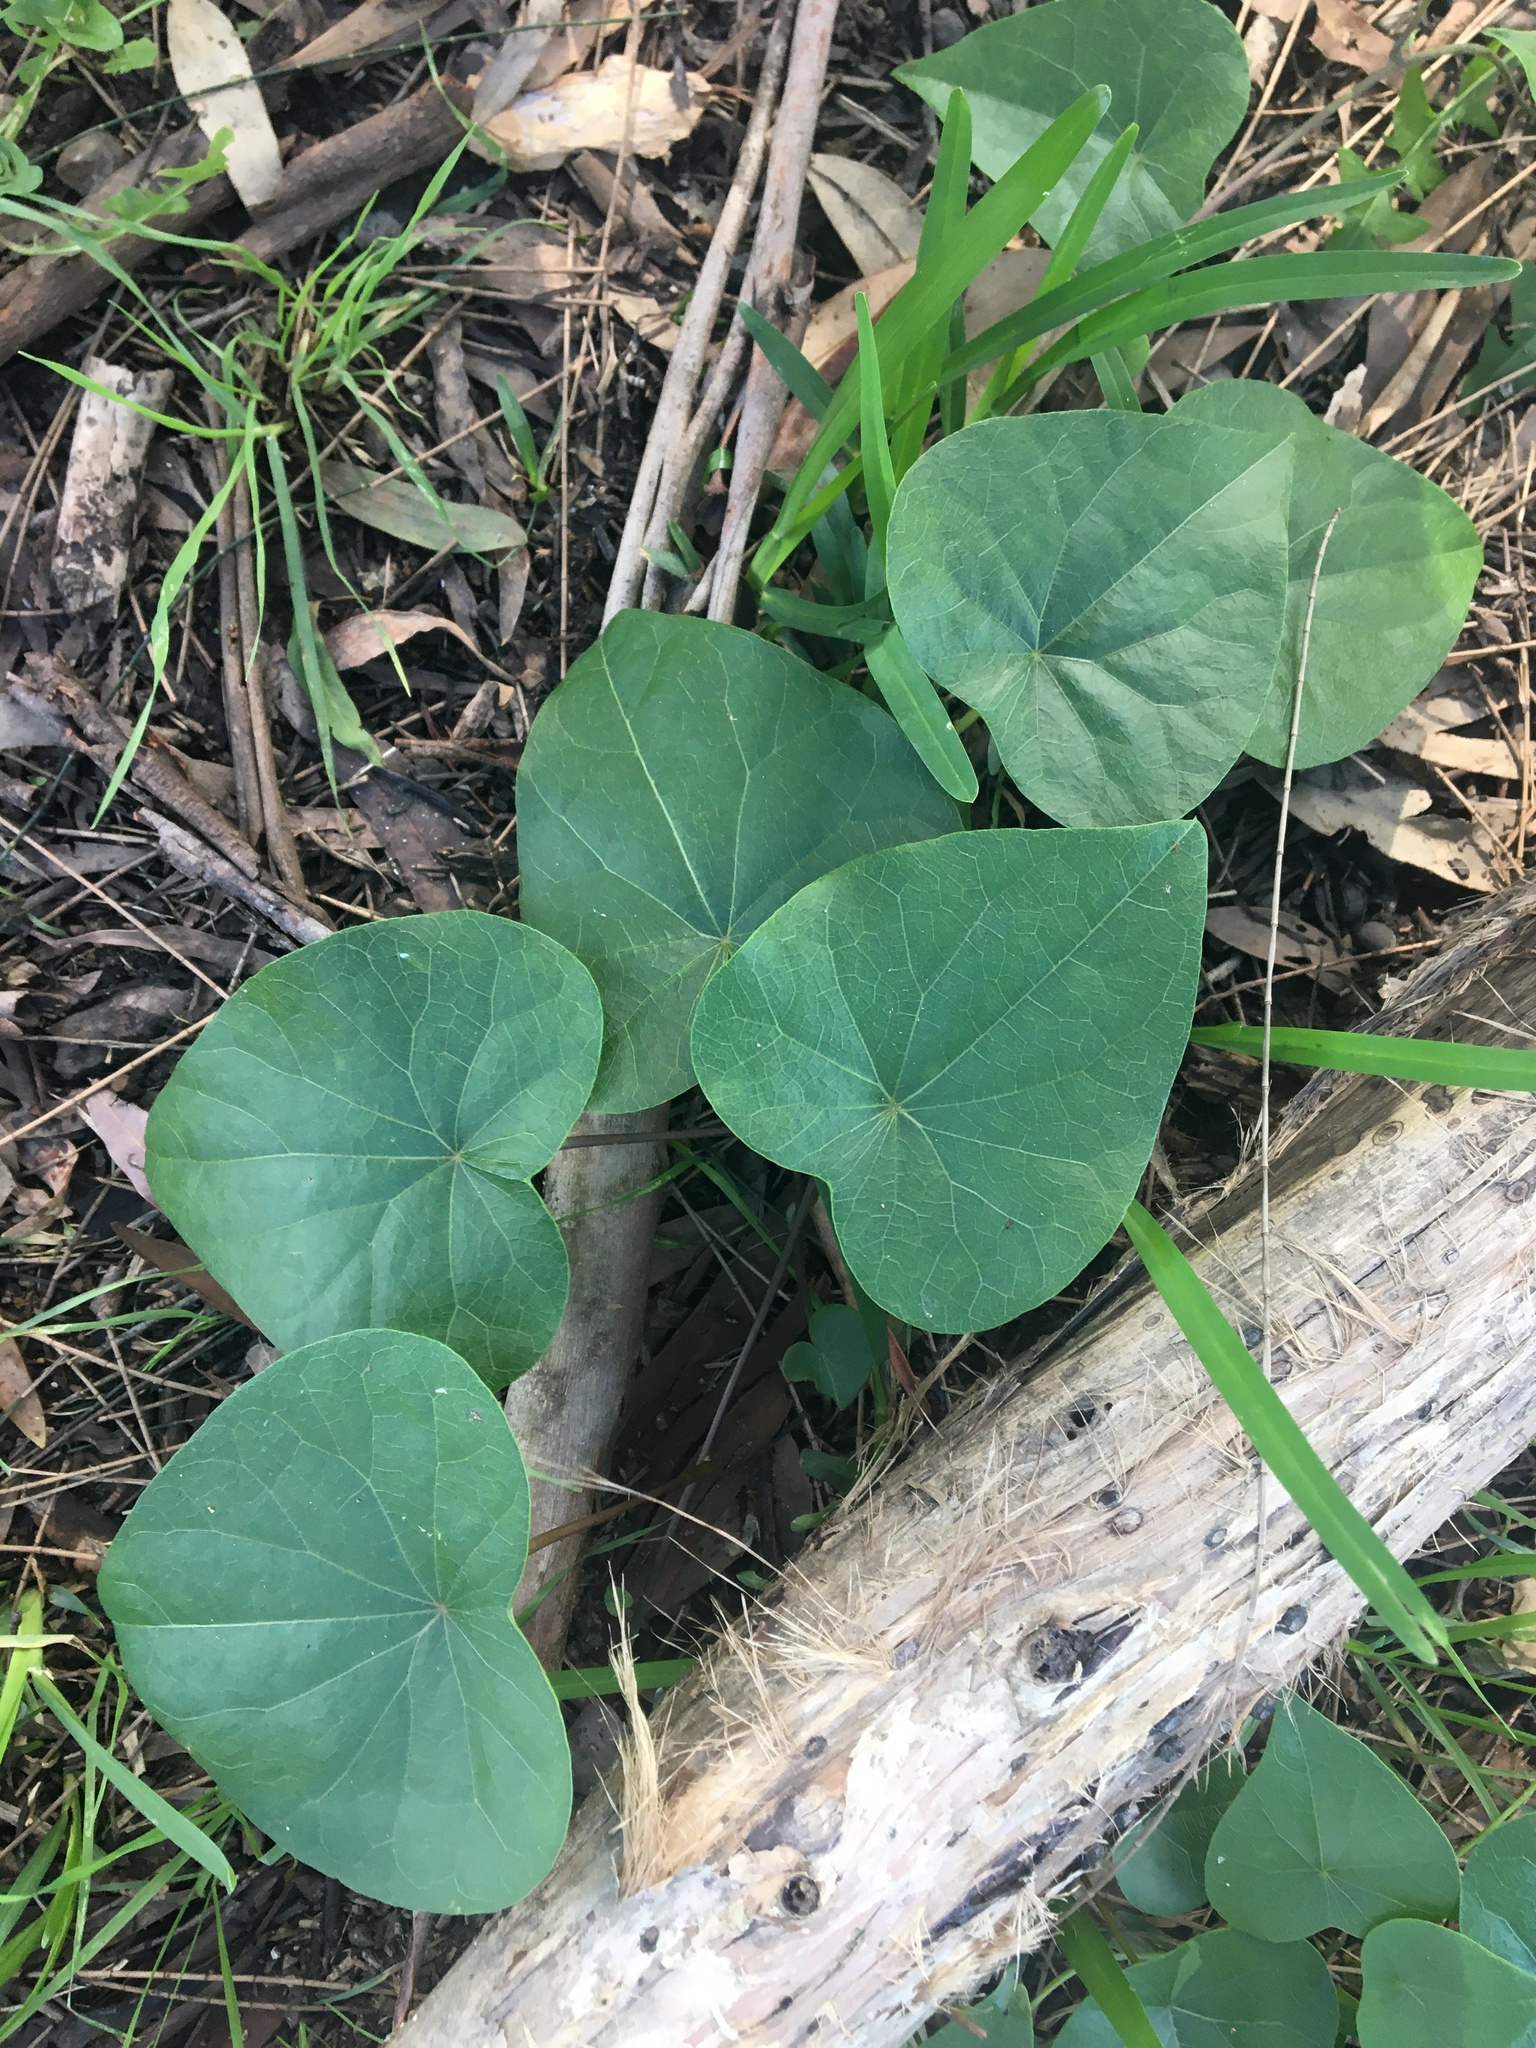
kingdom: Plantae
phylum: Tracheophyta
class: Magnoliopsida
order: Ranunculales
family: Menispermaceae
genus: Stephania
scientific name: Stephania japonica
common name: Snake vine
